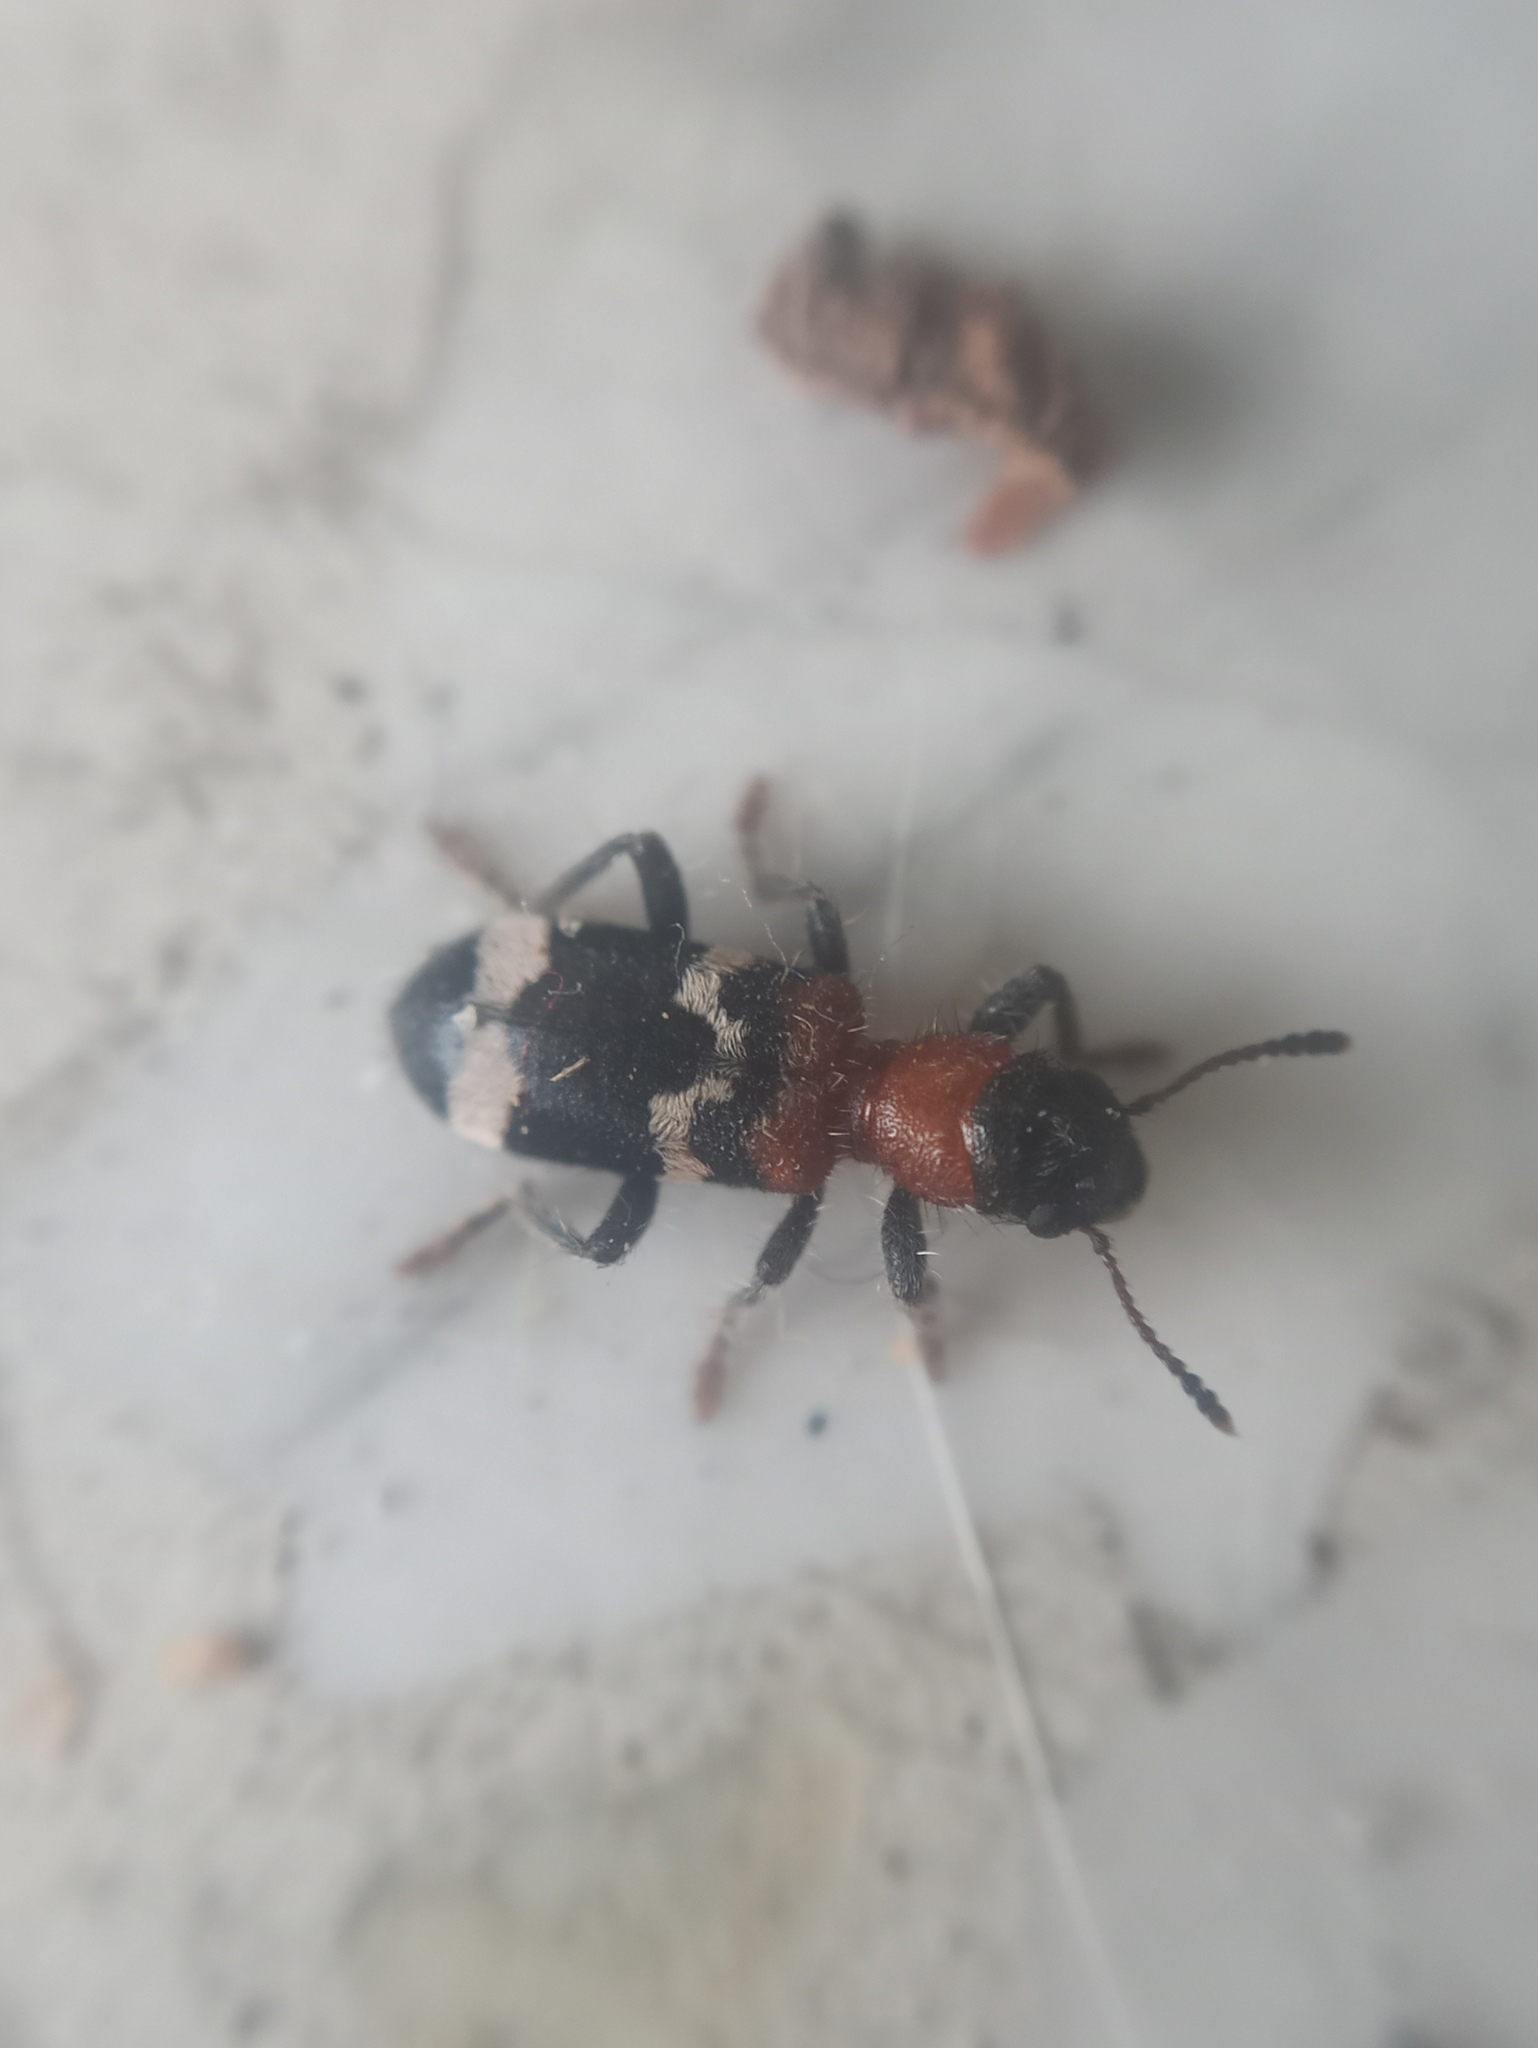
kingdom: Animalia
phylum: Arthropoda
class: Insecta
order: Coleoptera
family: Cleridae
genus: Thanasimus
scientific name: Thanasimus formicarius
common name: Ant beetle
